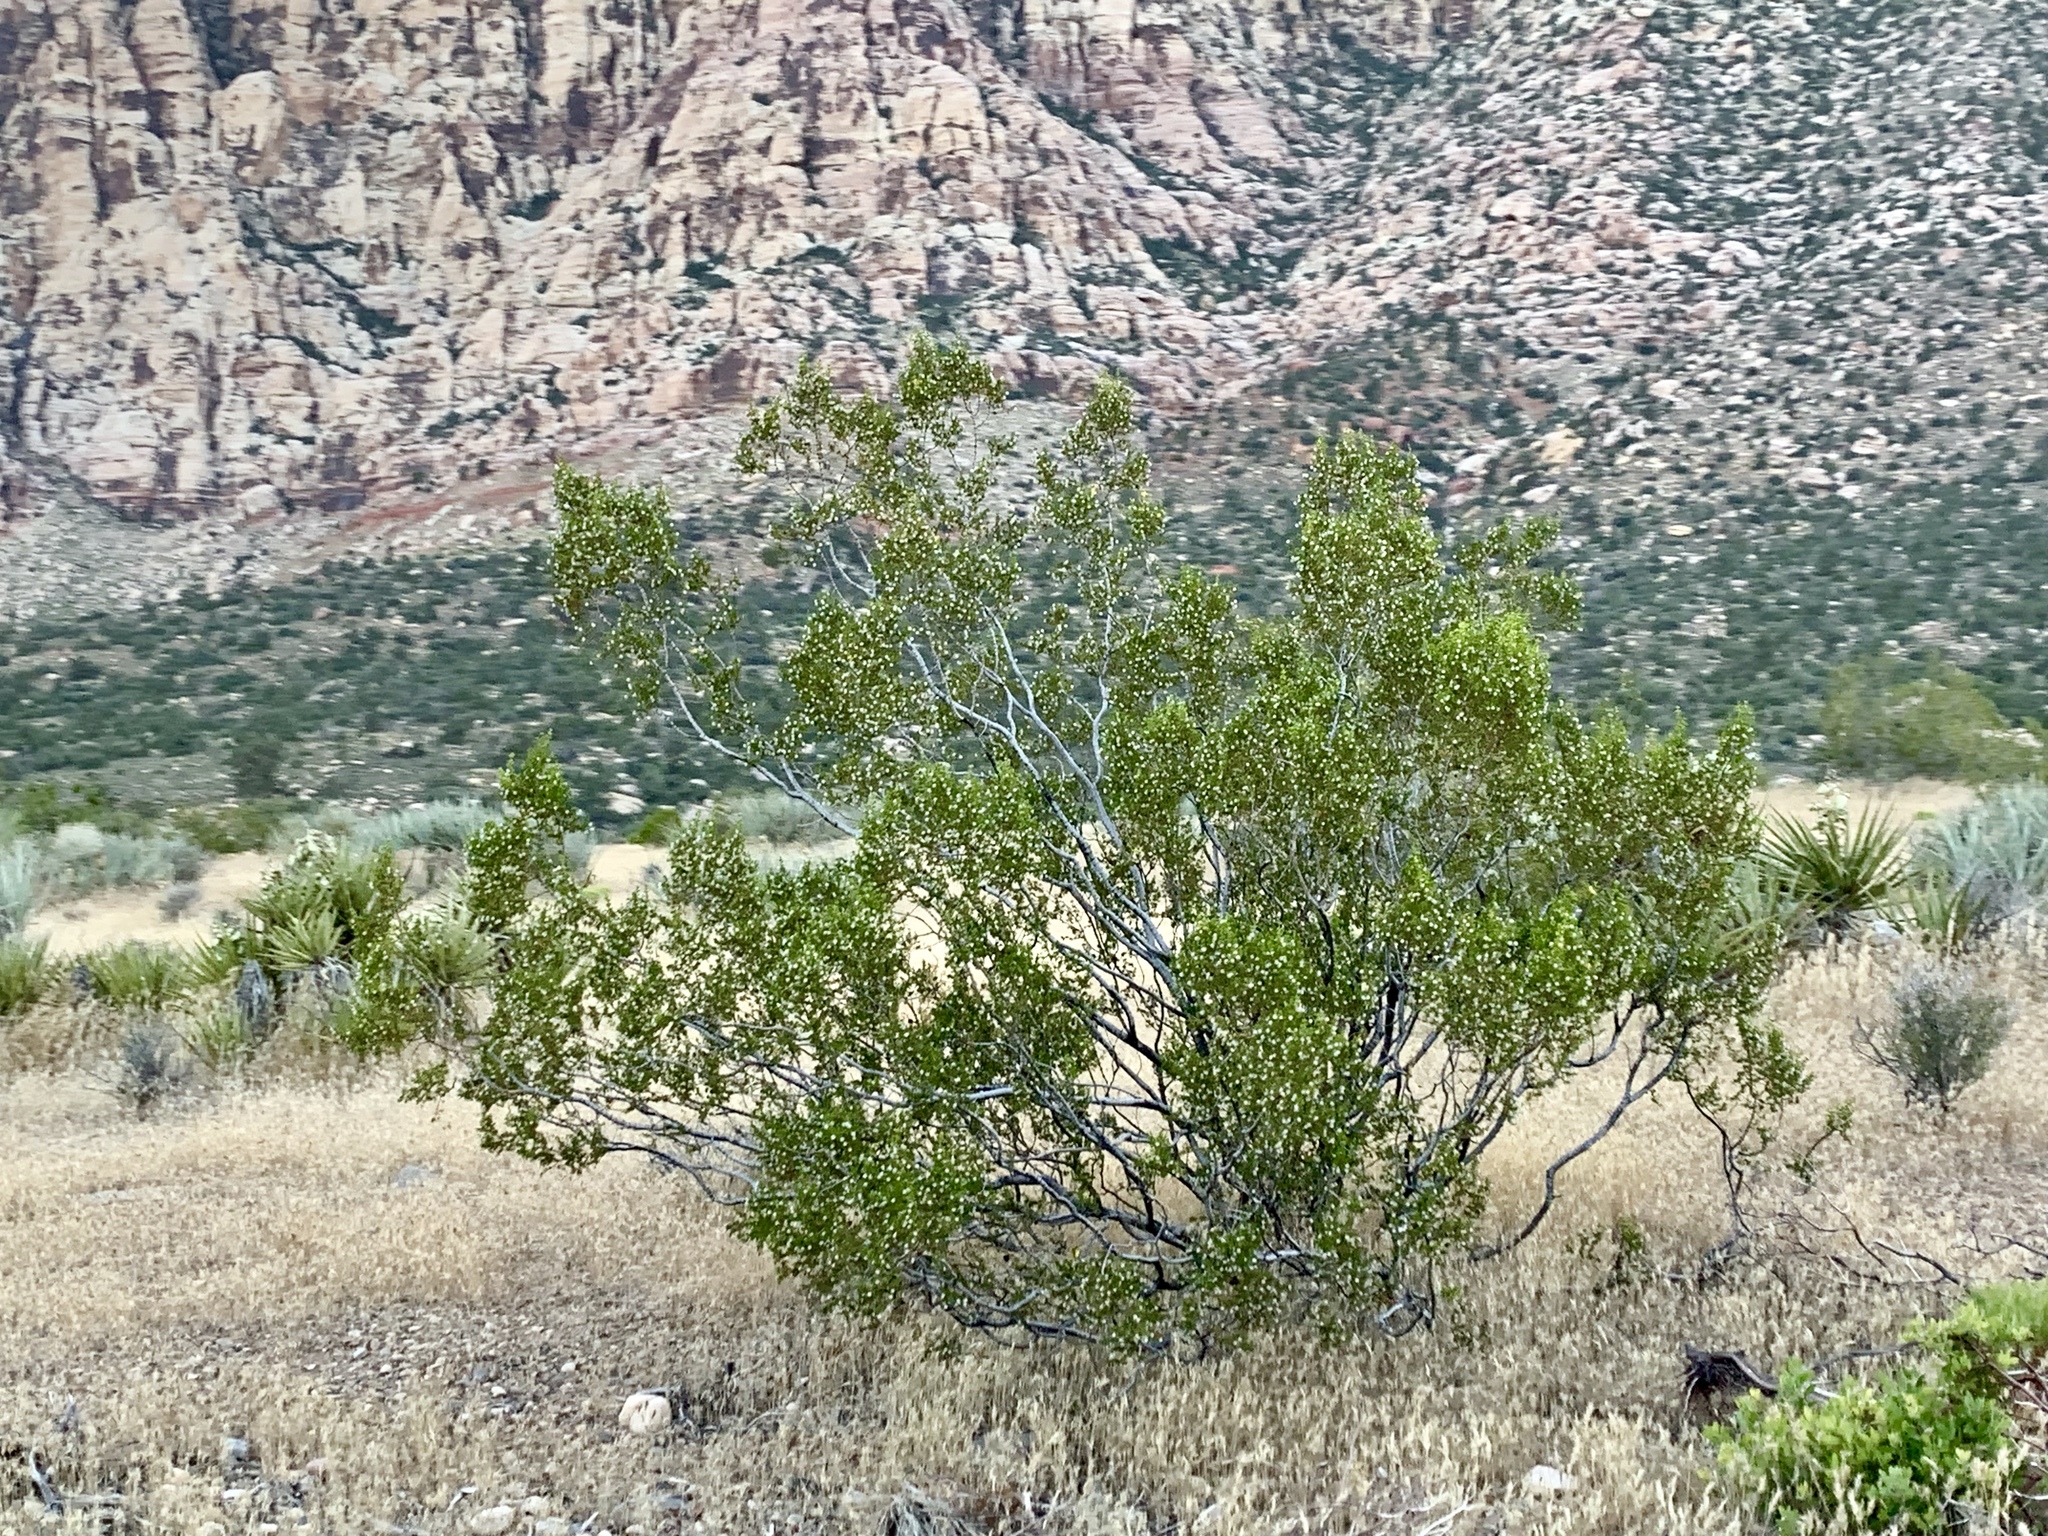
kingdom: Plantae
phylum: Tracheophyta
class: Magnoliopsida
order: Zygophyllales
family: Zygophyllaceae
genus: Larrea
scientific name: Larrea tridentata
